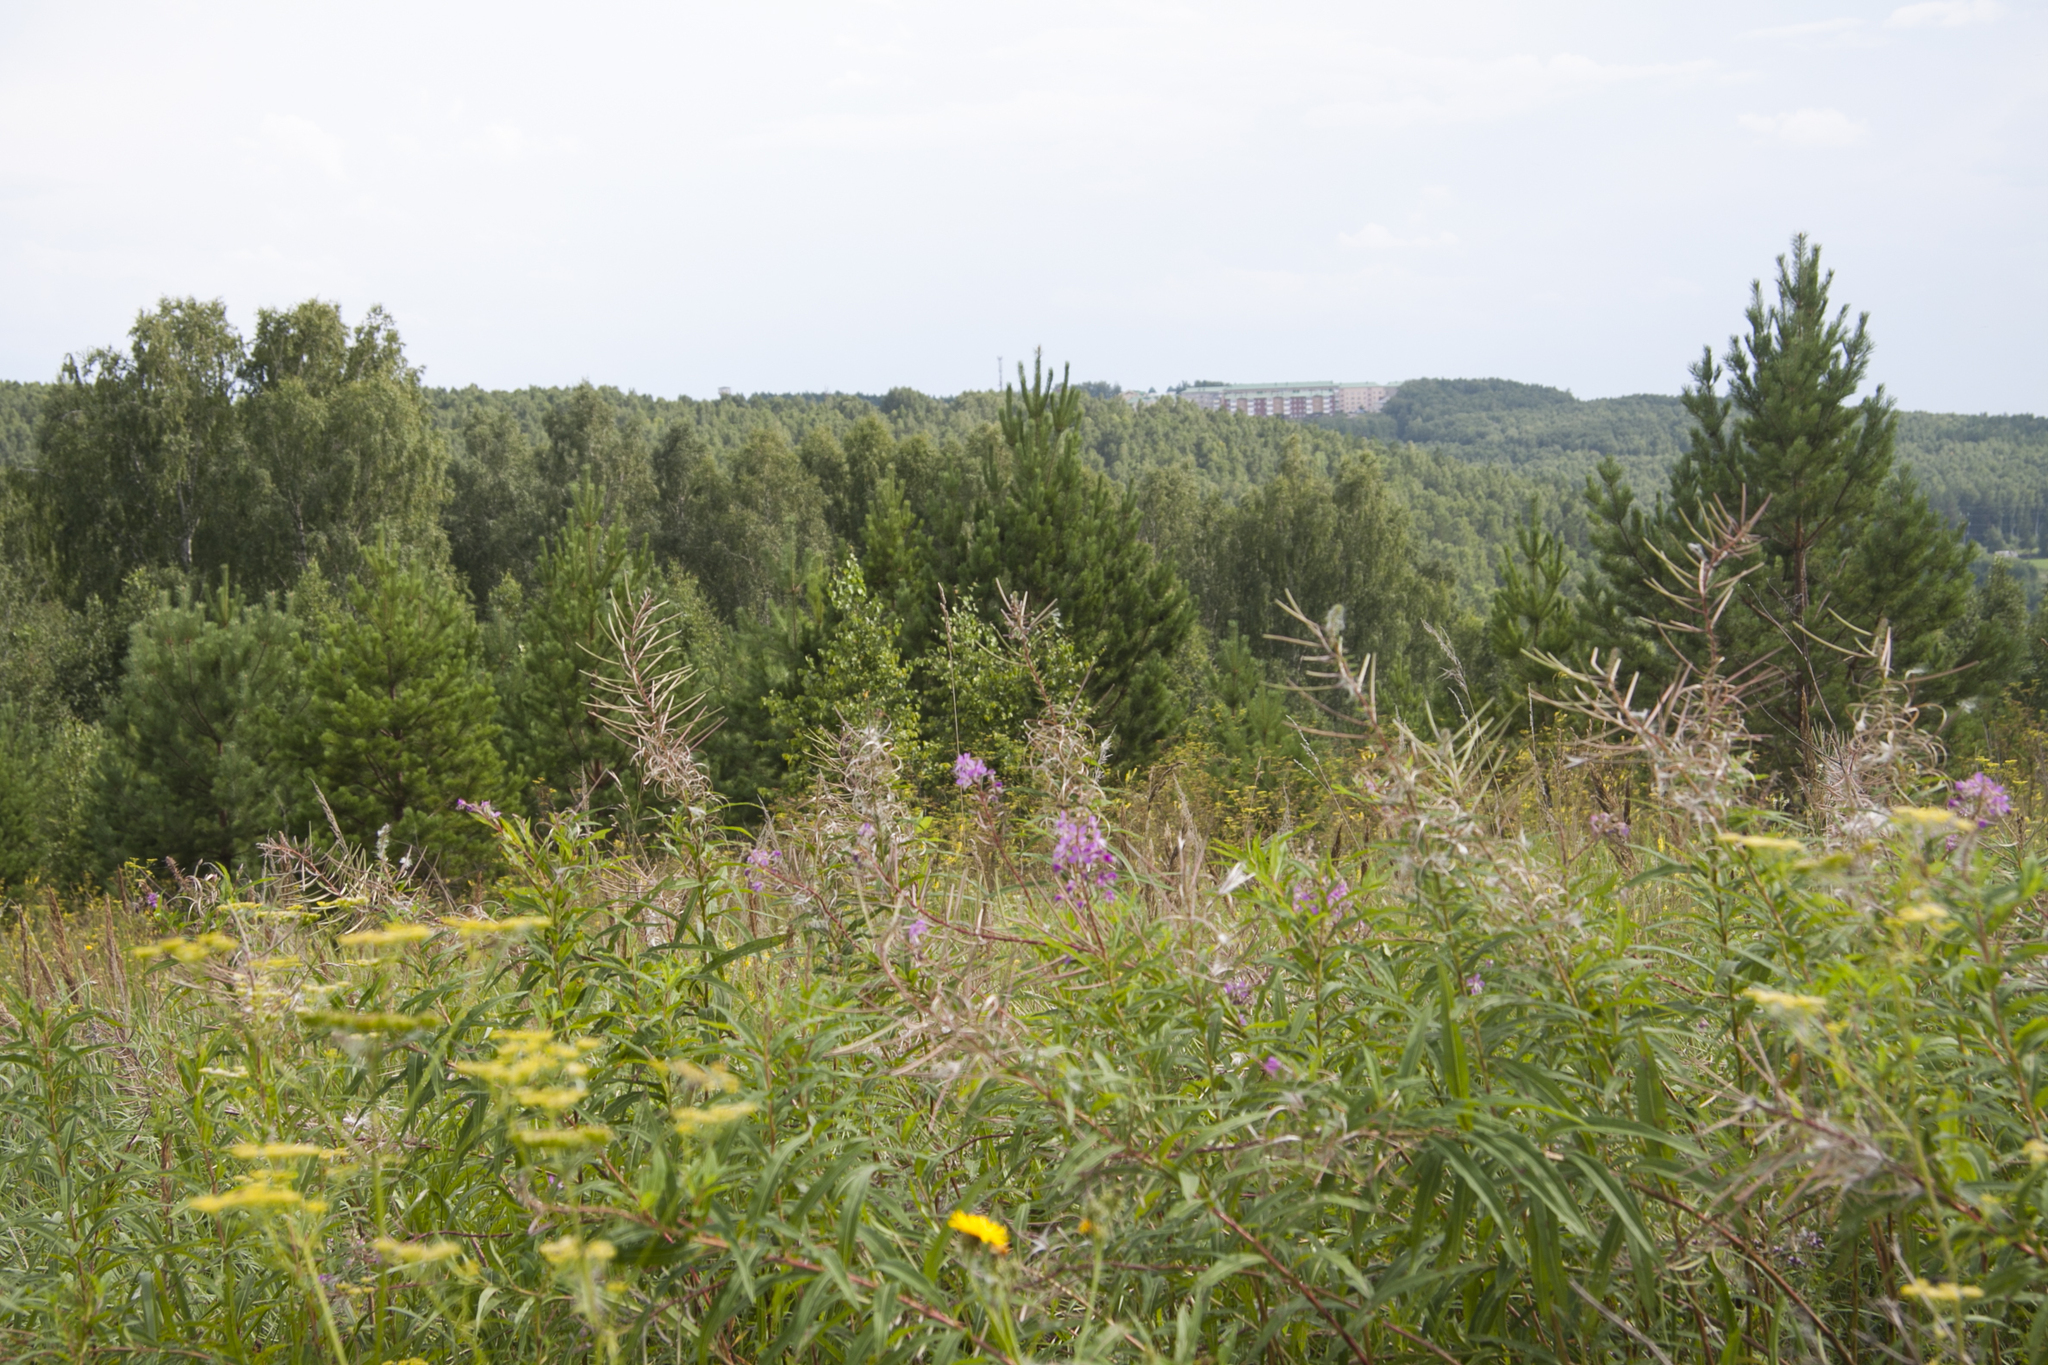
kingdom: Plantae
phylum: Tracheophyta
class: Magnoliopsida
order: Myrtales
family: Onagraceae
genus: Chamaenerion
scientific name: Chamaenerion angustifolium
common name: Fireweed
